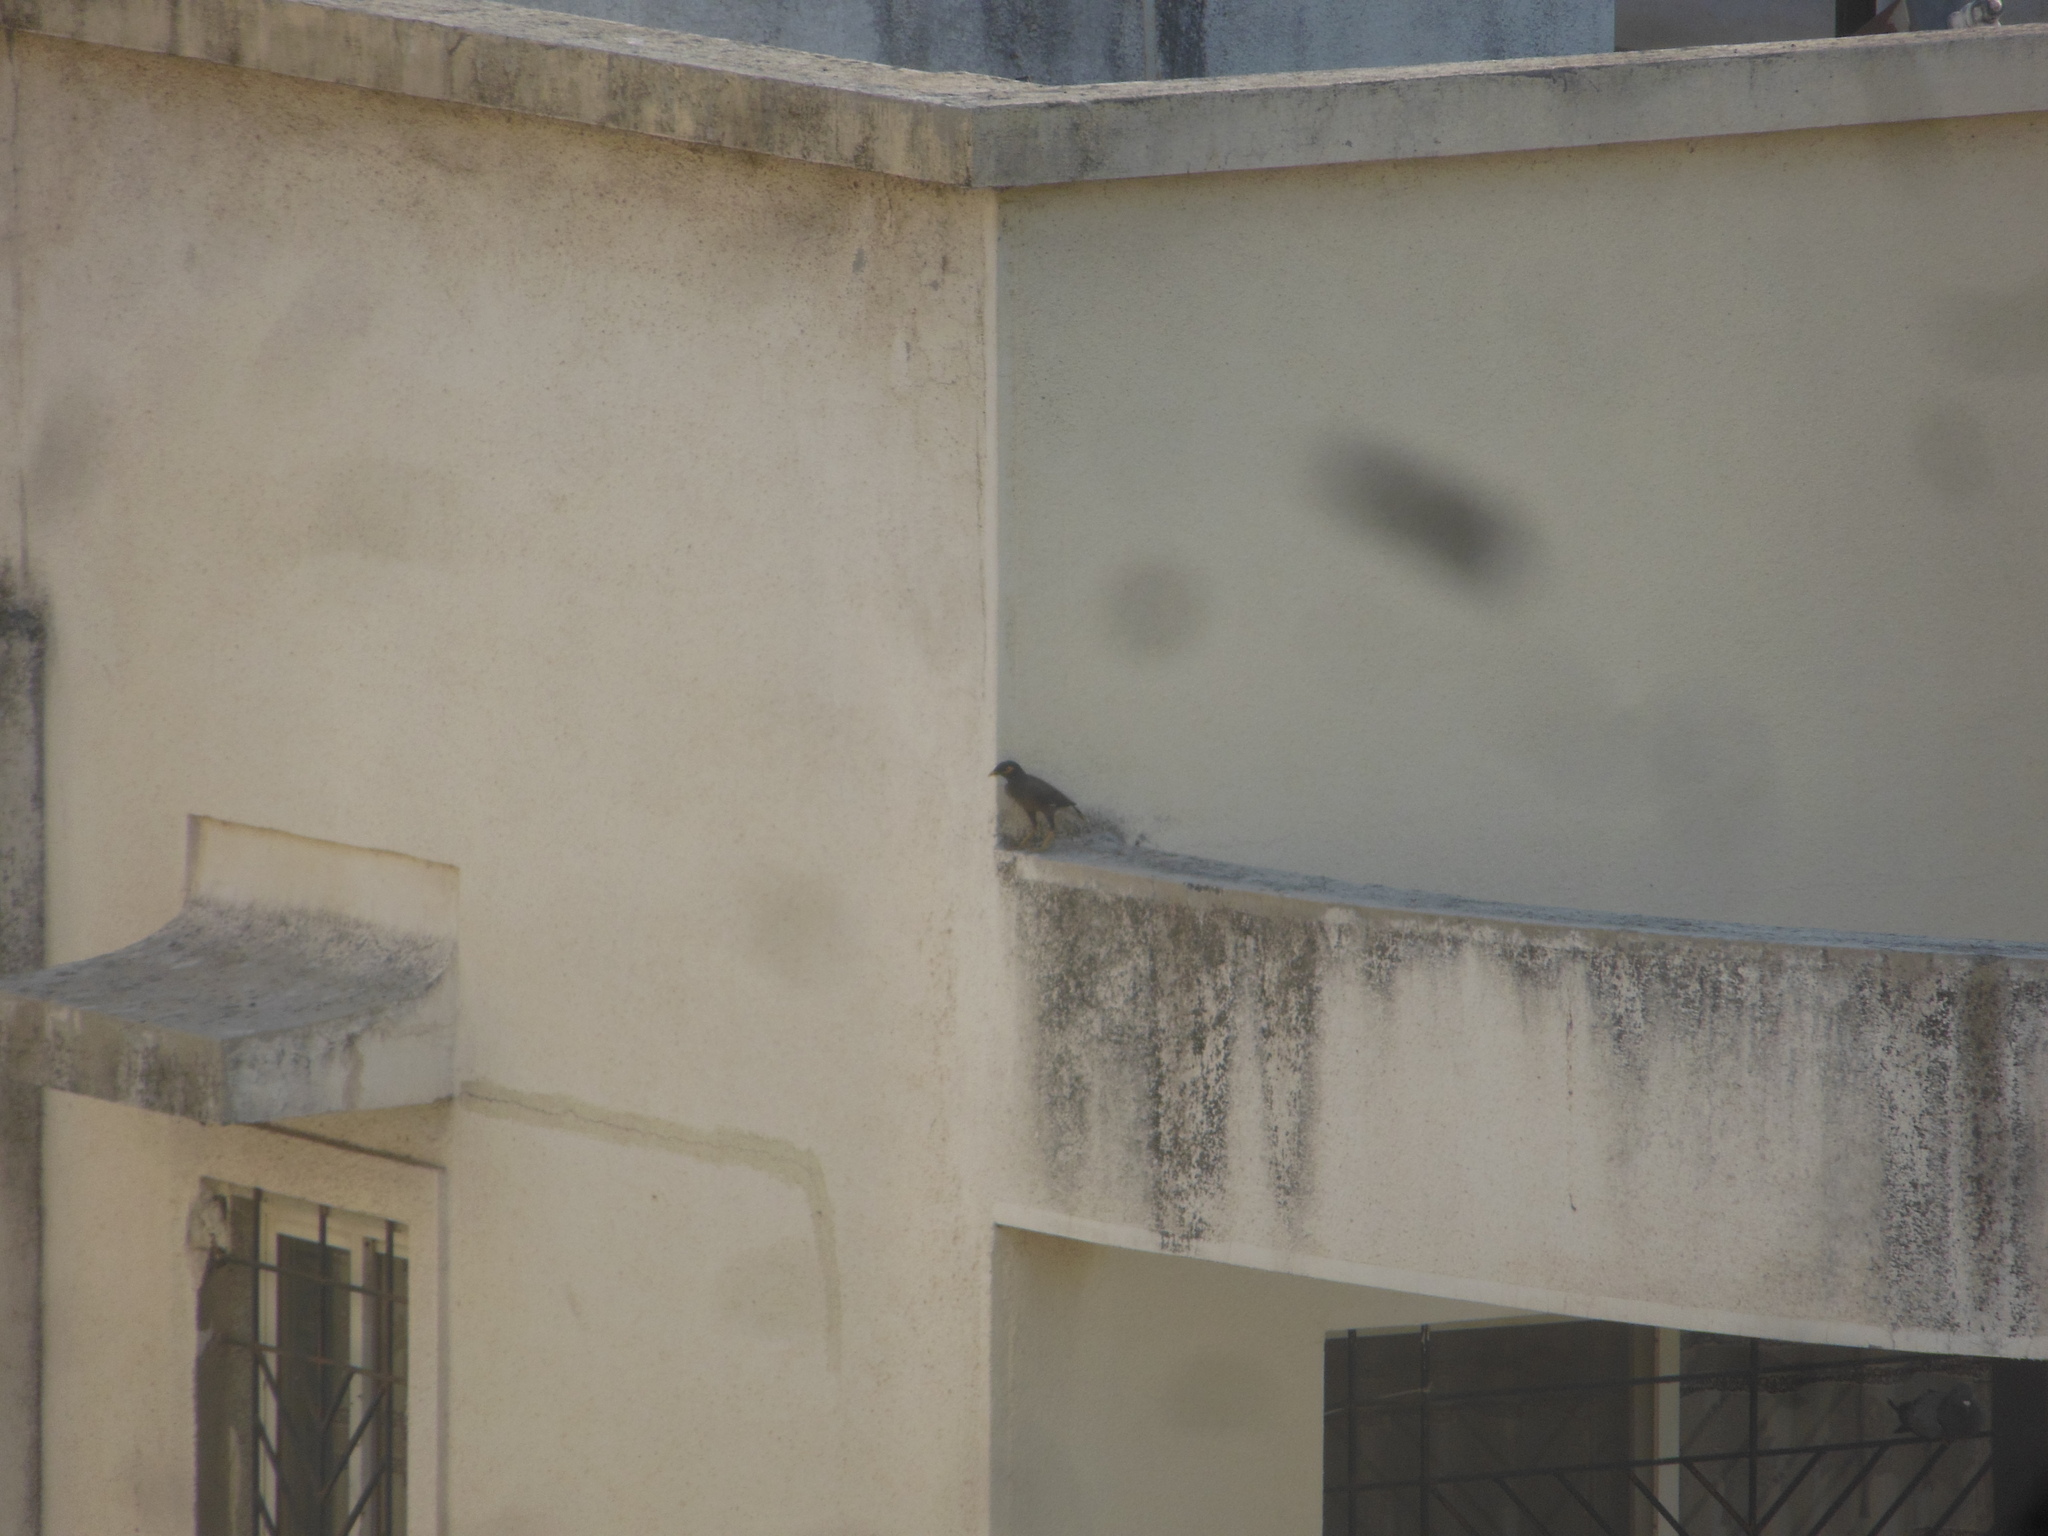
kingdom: Animalia
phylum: Chordata
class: Aves
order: Passeriformes
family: Sturnidae
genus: Acridotheres
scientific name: Acridotheres tristis
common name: Common myna
